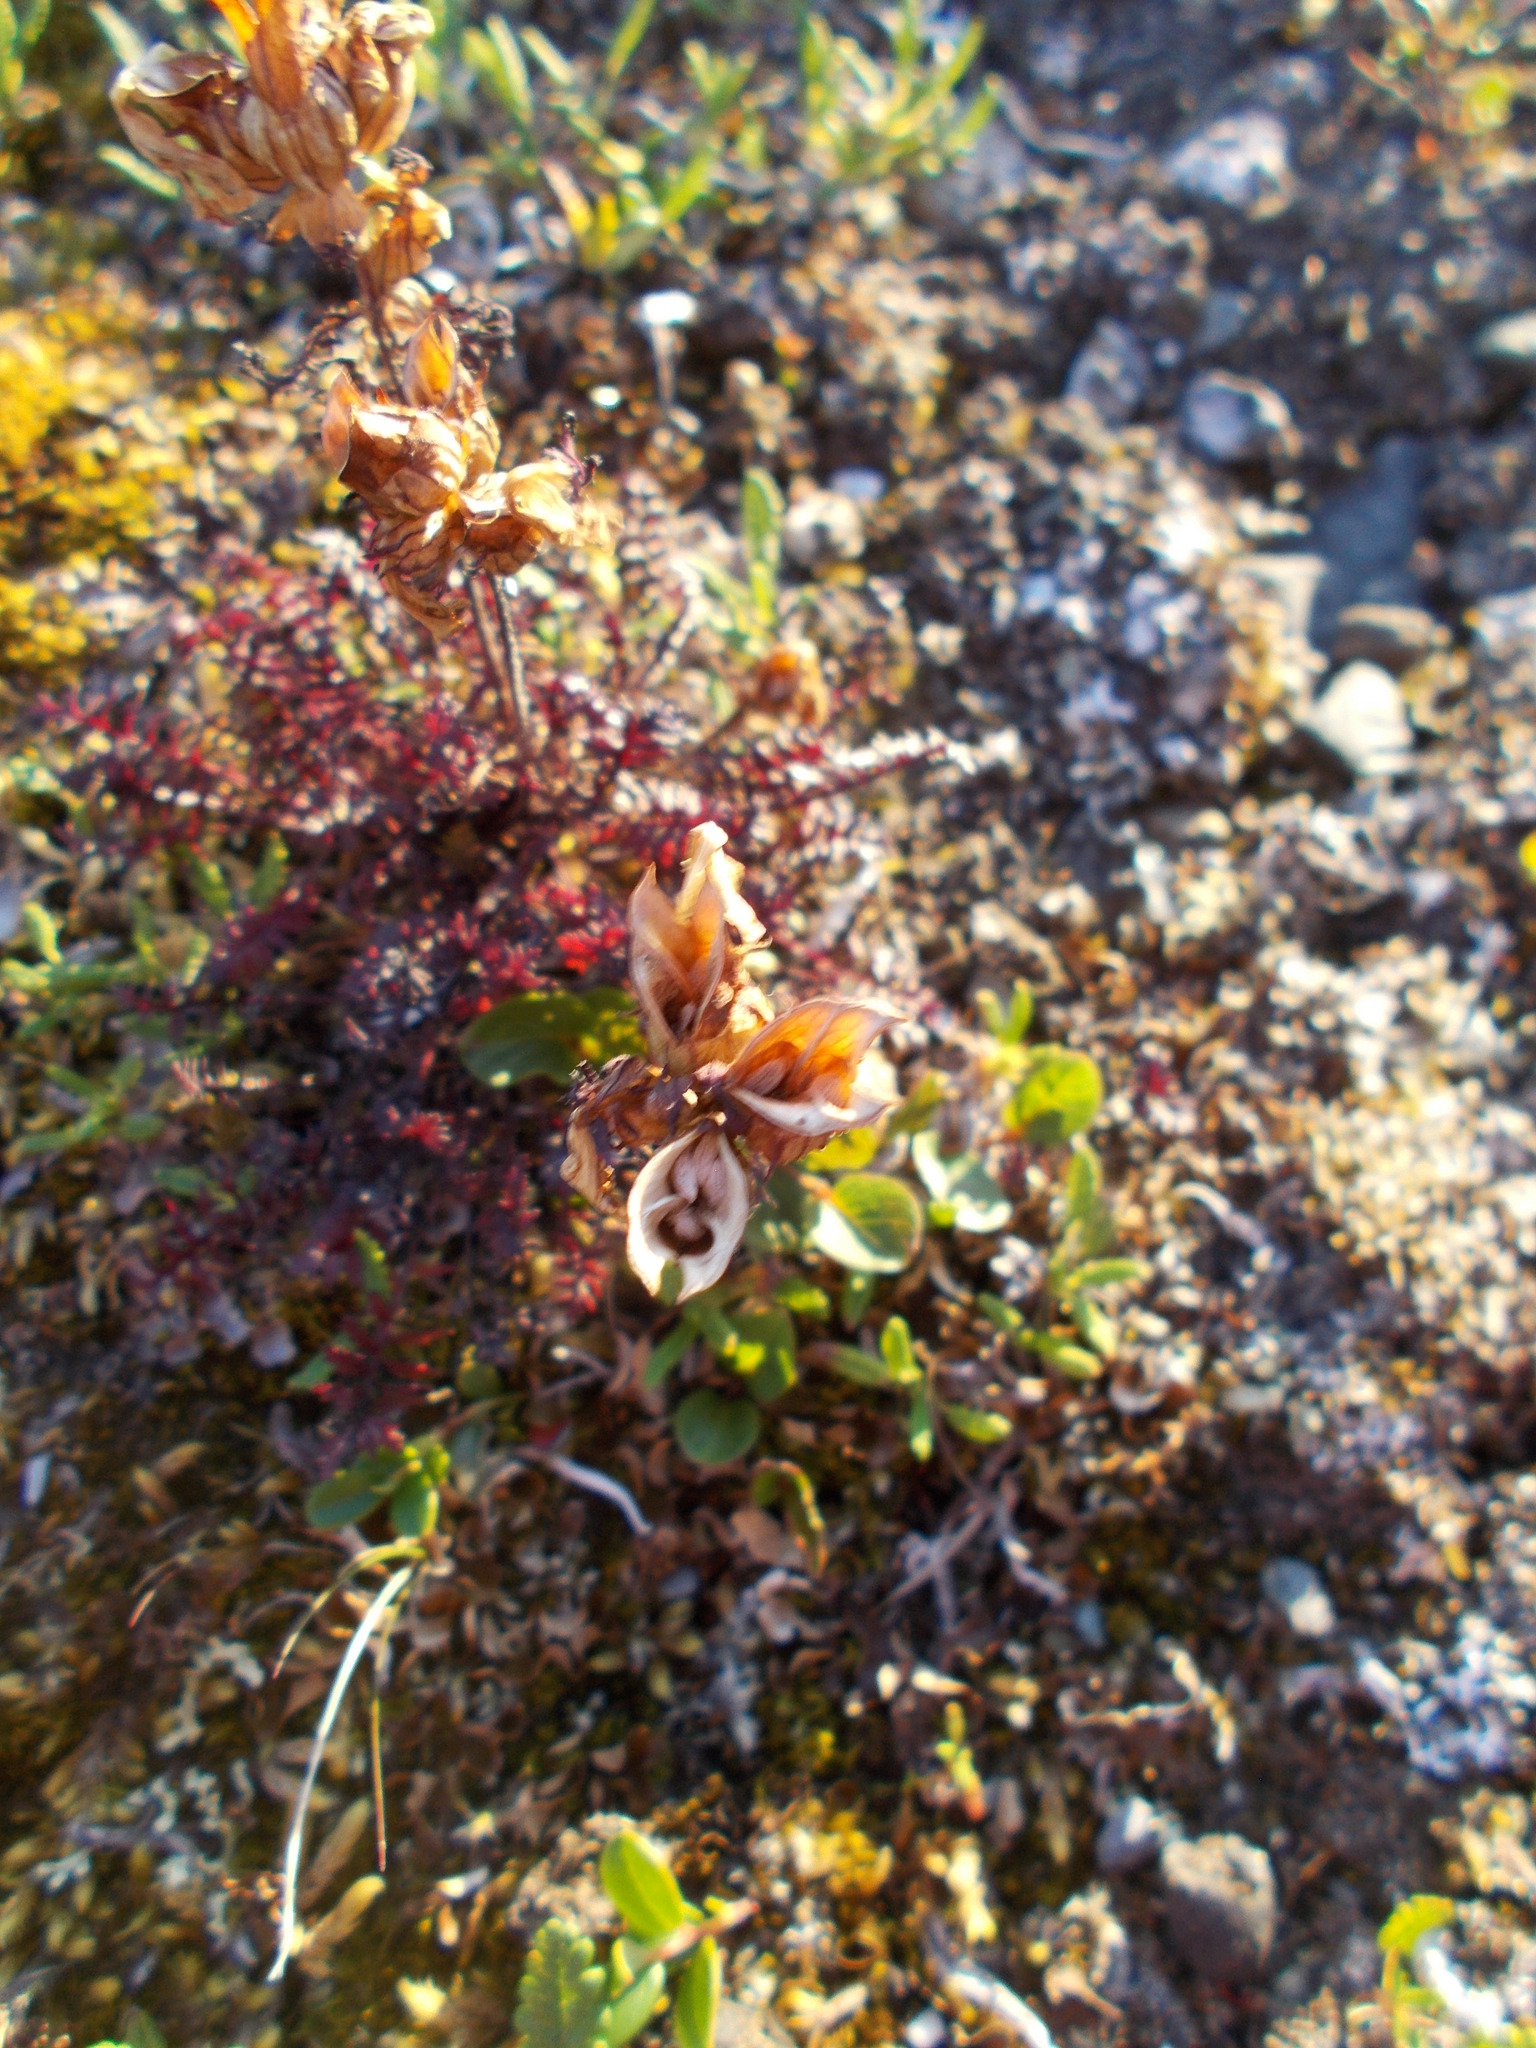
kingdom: Plantae
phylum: Tracheophyta
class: Magnoliopsida
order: Lamiales
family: Orobanchaceae
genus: Pedicularis
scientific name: Pedicularis lapponica
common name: Lapland lousewort
